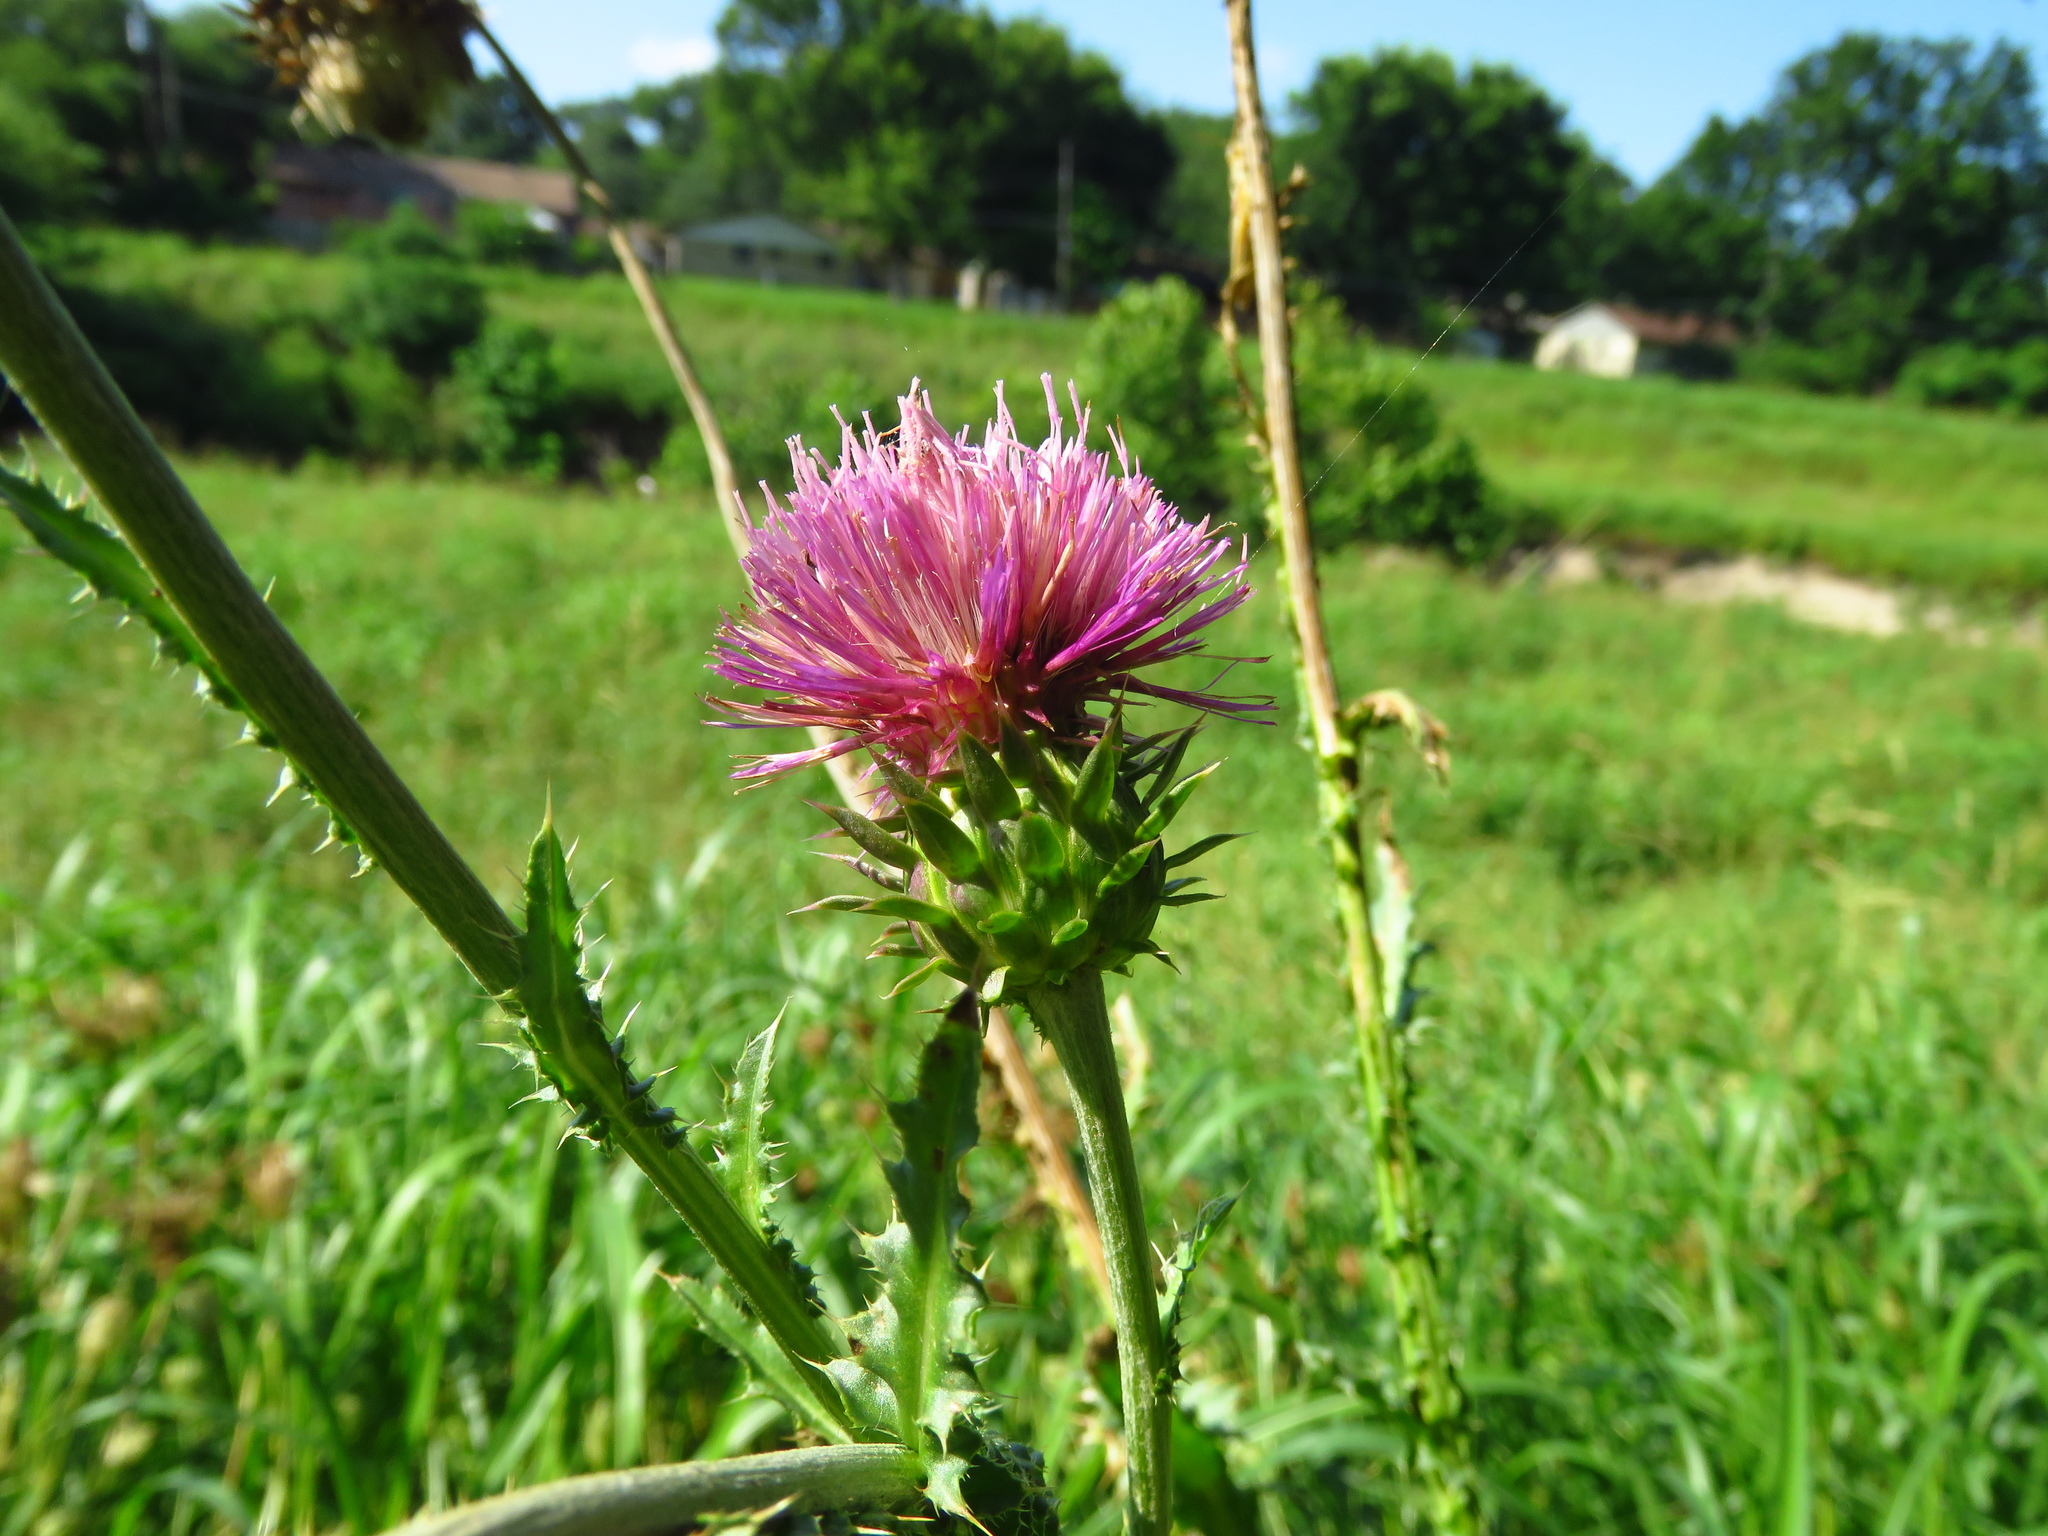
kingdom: Plantae
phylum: Tracheophyta
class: Magnoliopsida
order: Asterales
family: Asteraceae
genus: Carduus
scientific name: Carduus nutans
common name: Musk thistle
